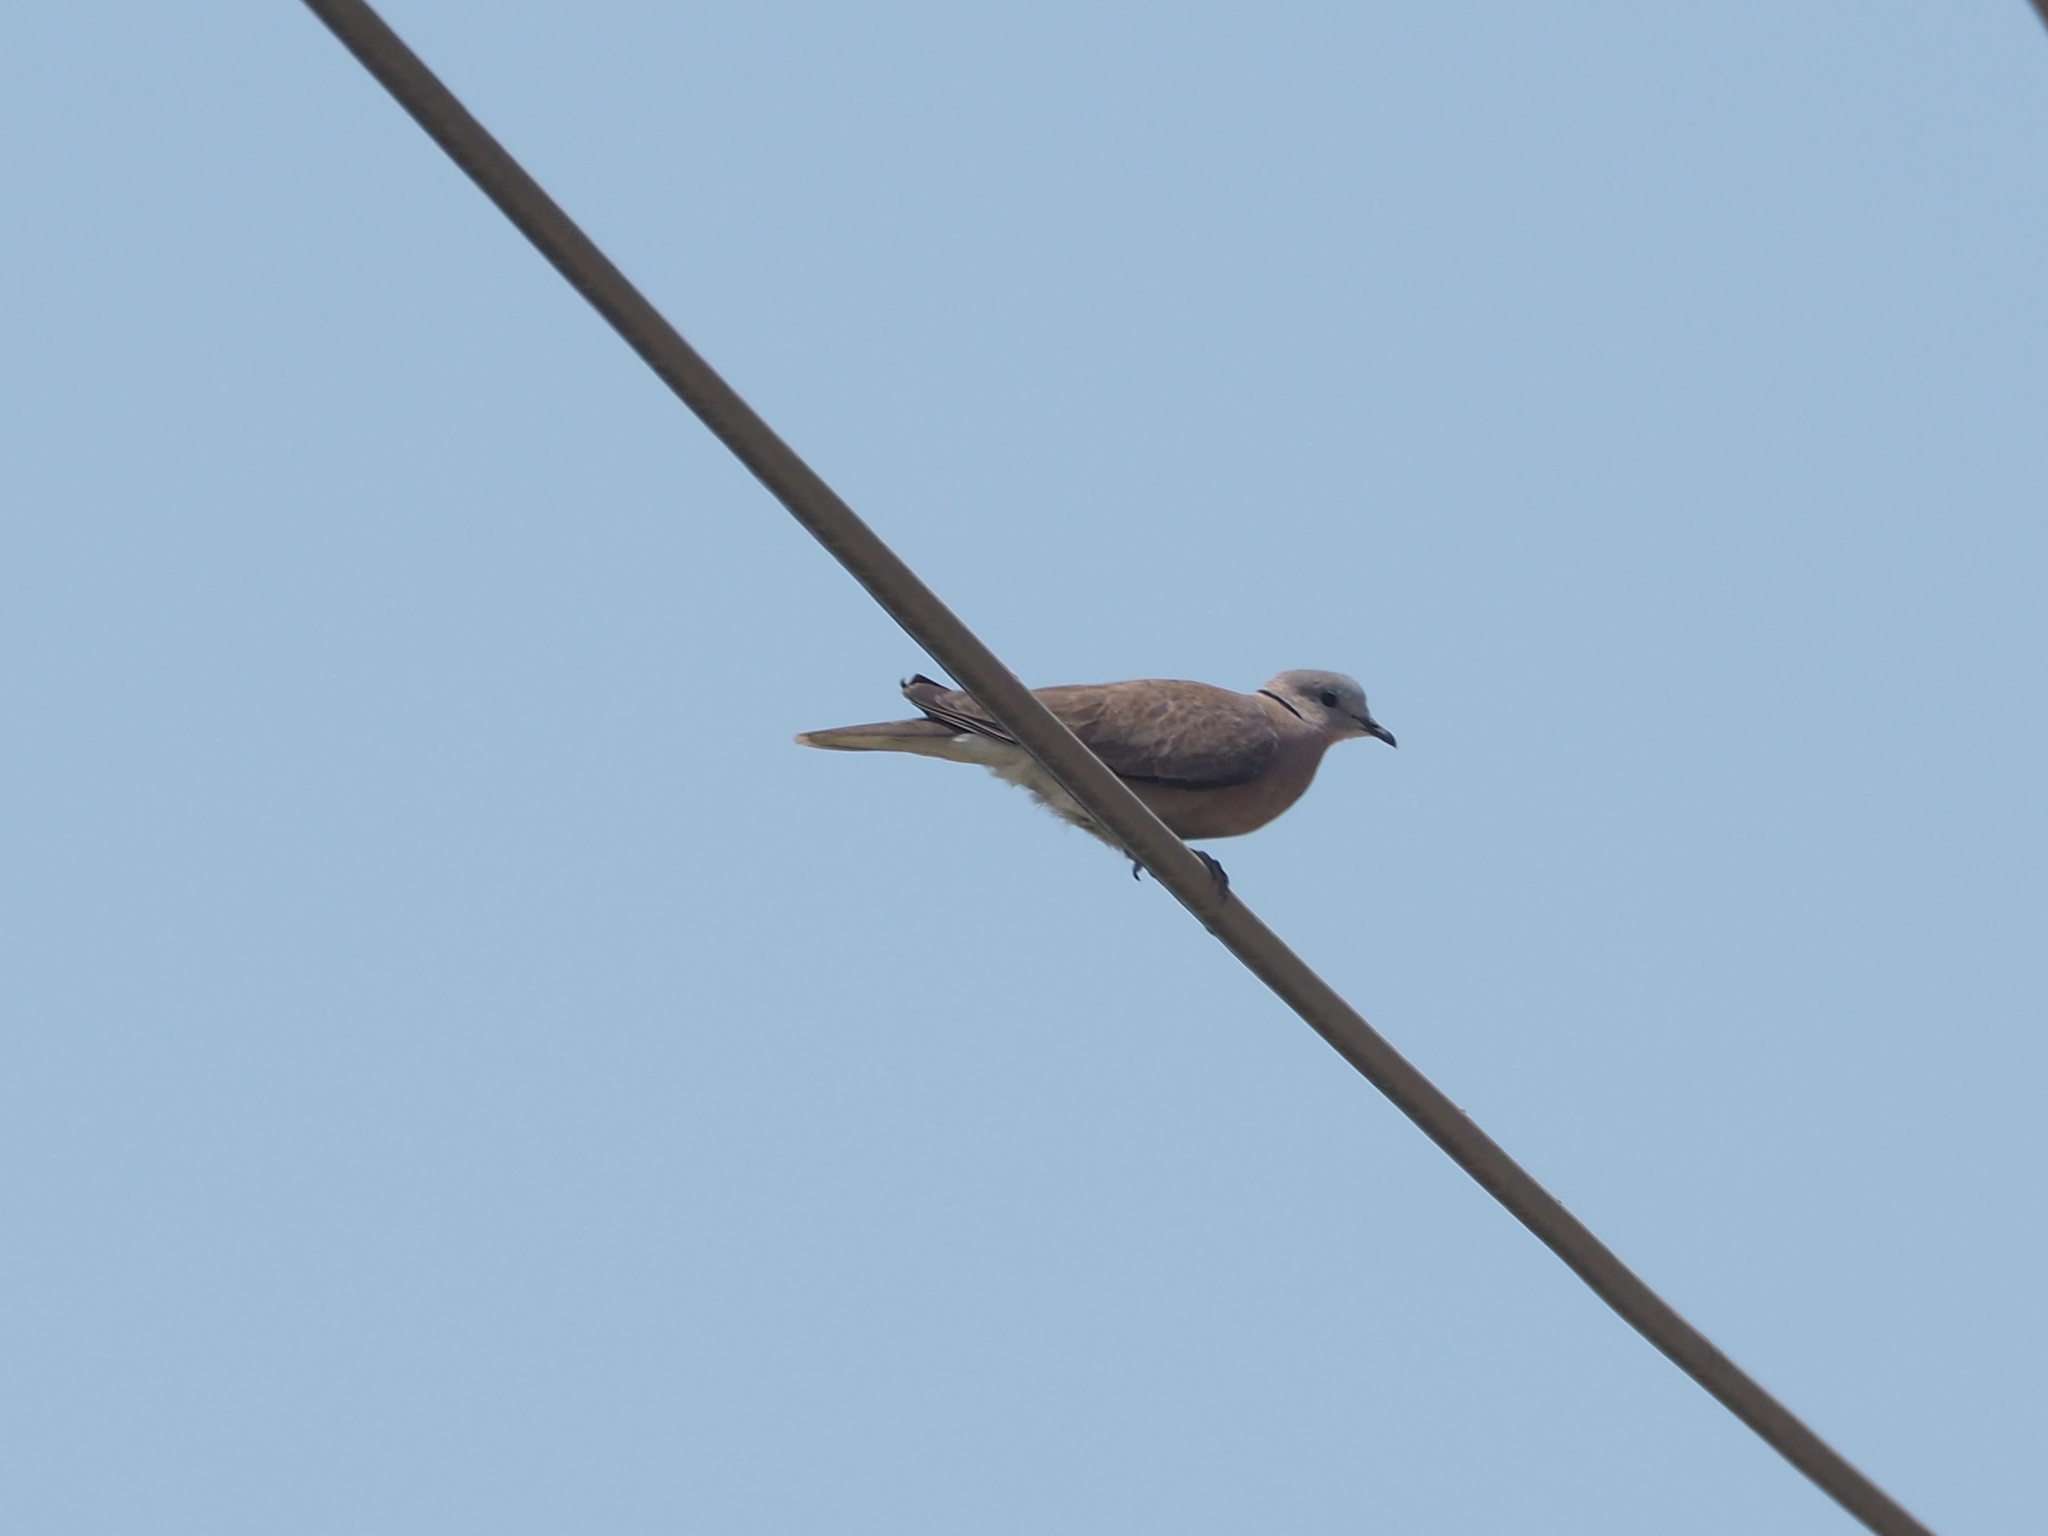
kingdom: Animalia
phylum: Chordata
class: Aves
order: Columbiformes
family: Columbidae
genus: Streptopelia
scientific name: Streptopelia tranquebarica
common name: Red turtle dove
